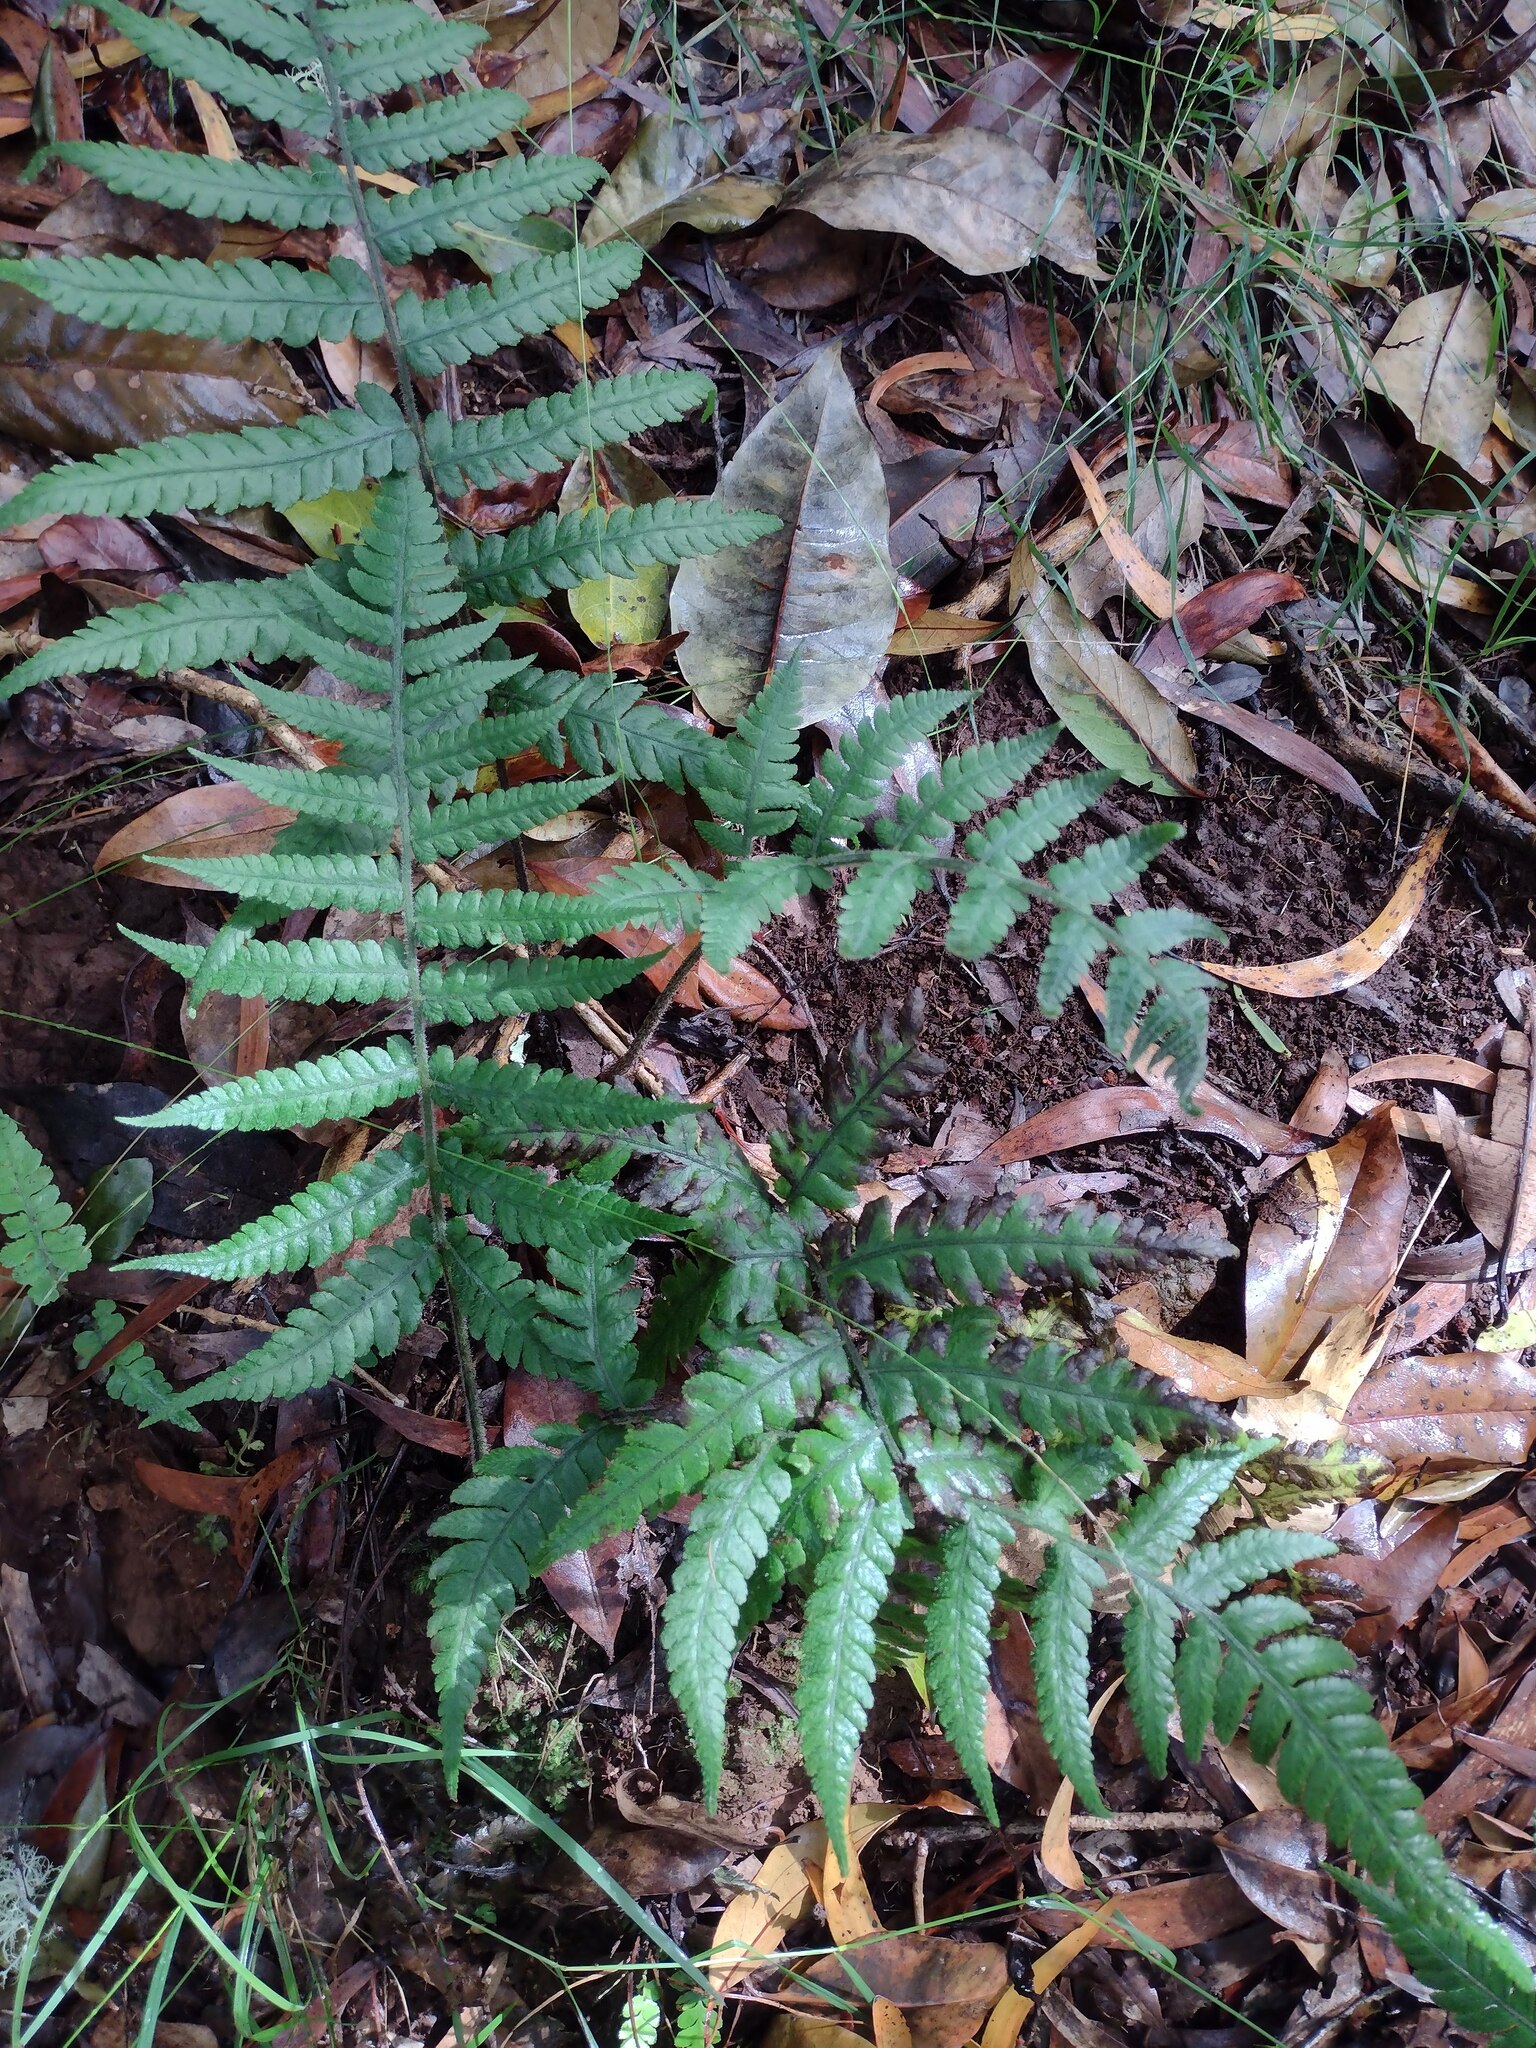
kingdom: Plantae
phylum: Tracheophyta
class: Polypodiopsida
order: Polypodiales
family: Athyriaceae
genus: Deparia
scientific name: Deparia petersenii
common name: Japanese false spleenwort
